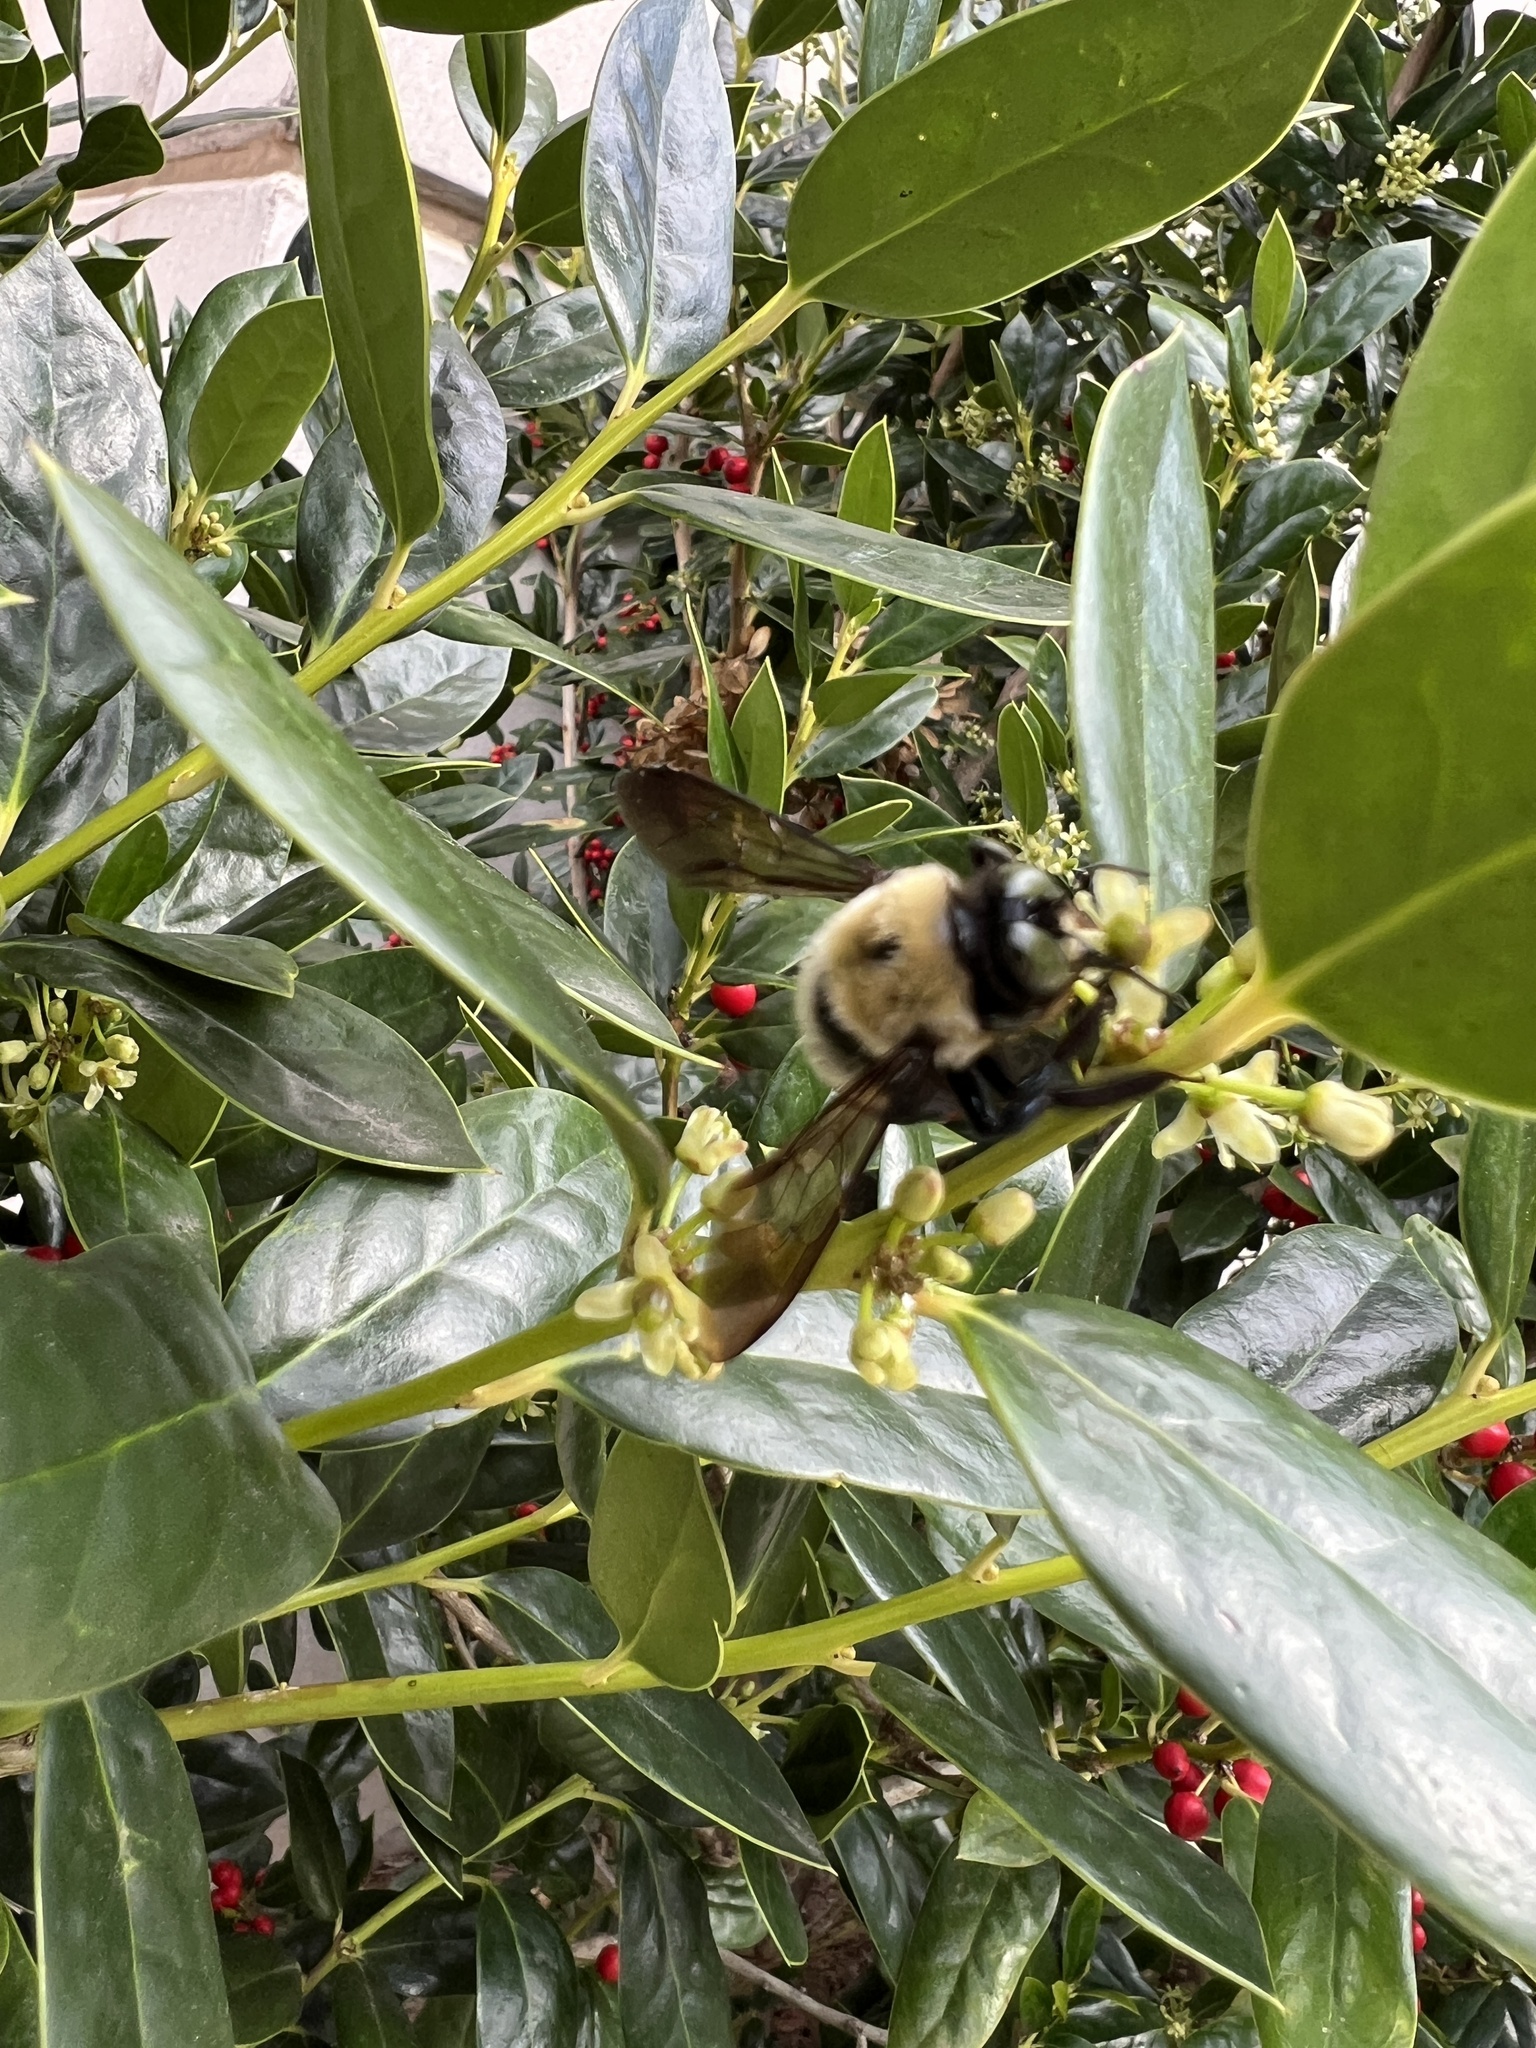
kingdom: Animalia
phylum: Arthropoda
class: Insecta
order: Hymenoptera
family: Apidae
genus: Xylocopa
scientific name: Xylocopa virginica
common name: Carpenter bee
